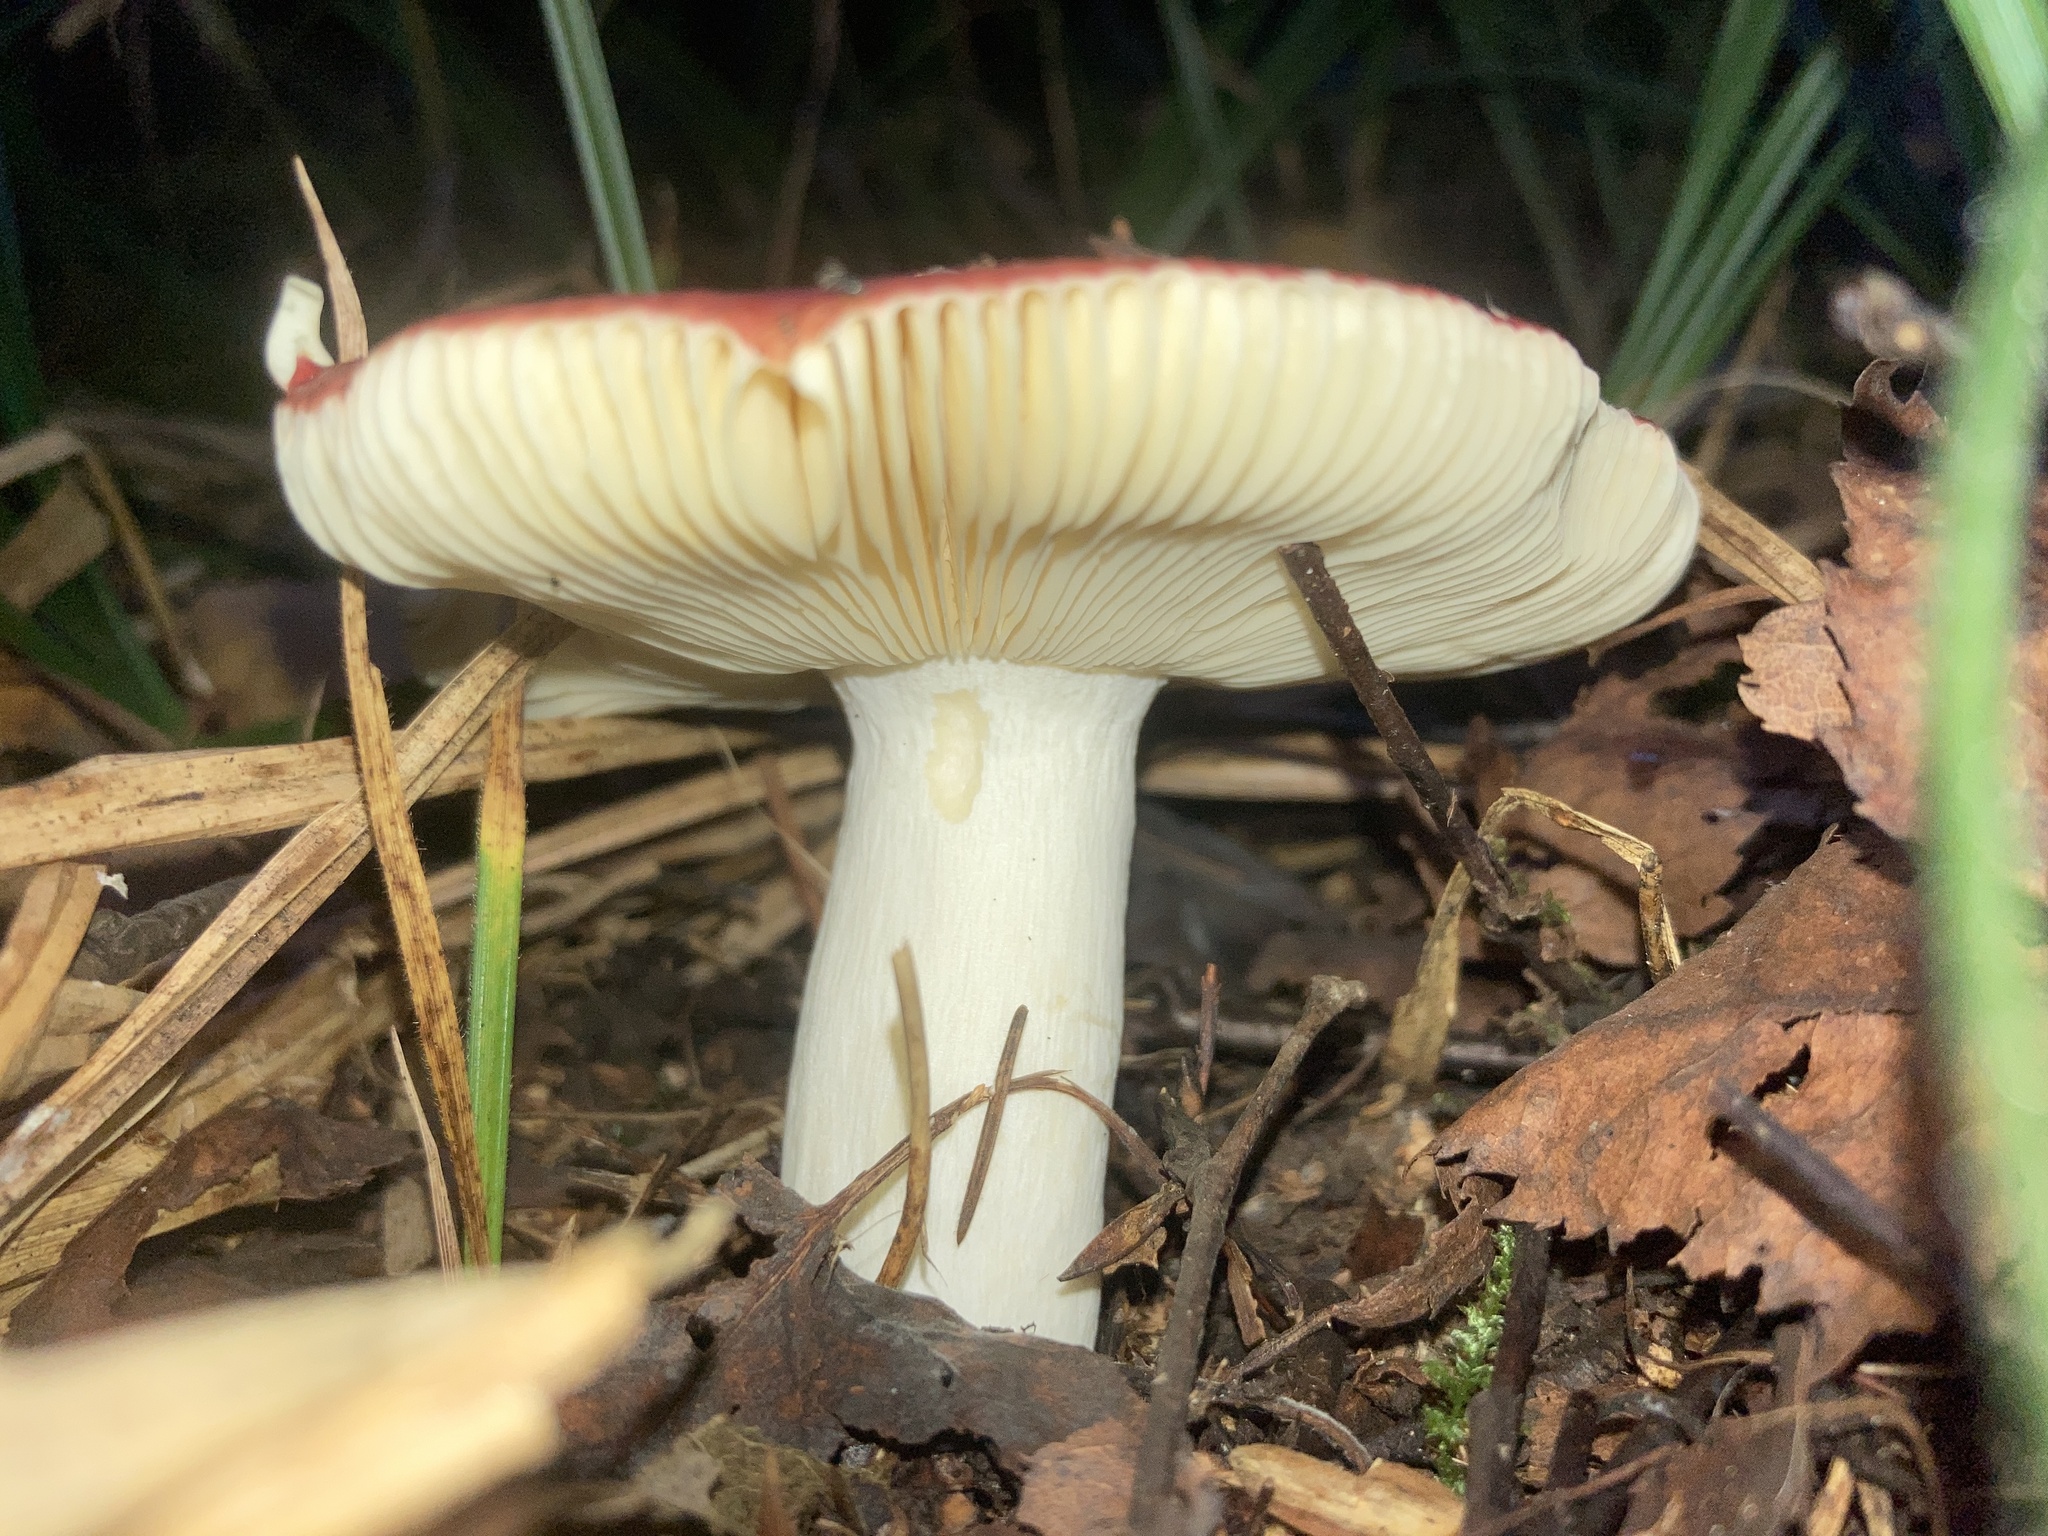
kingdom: Fungi
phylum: Basidiomycota
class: Agaricomycetes
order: Russulales
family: Russulaceae
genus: Russula
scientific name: Russula sanguinea
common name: Bloody brittlegill
